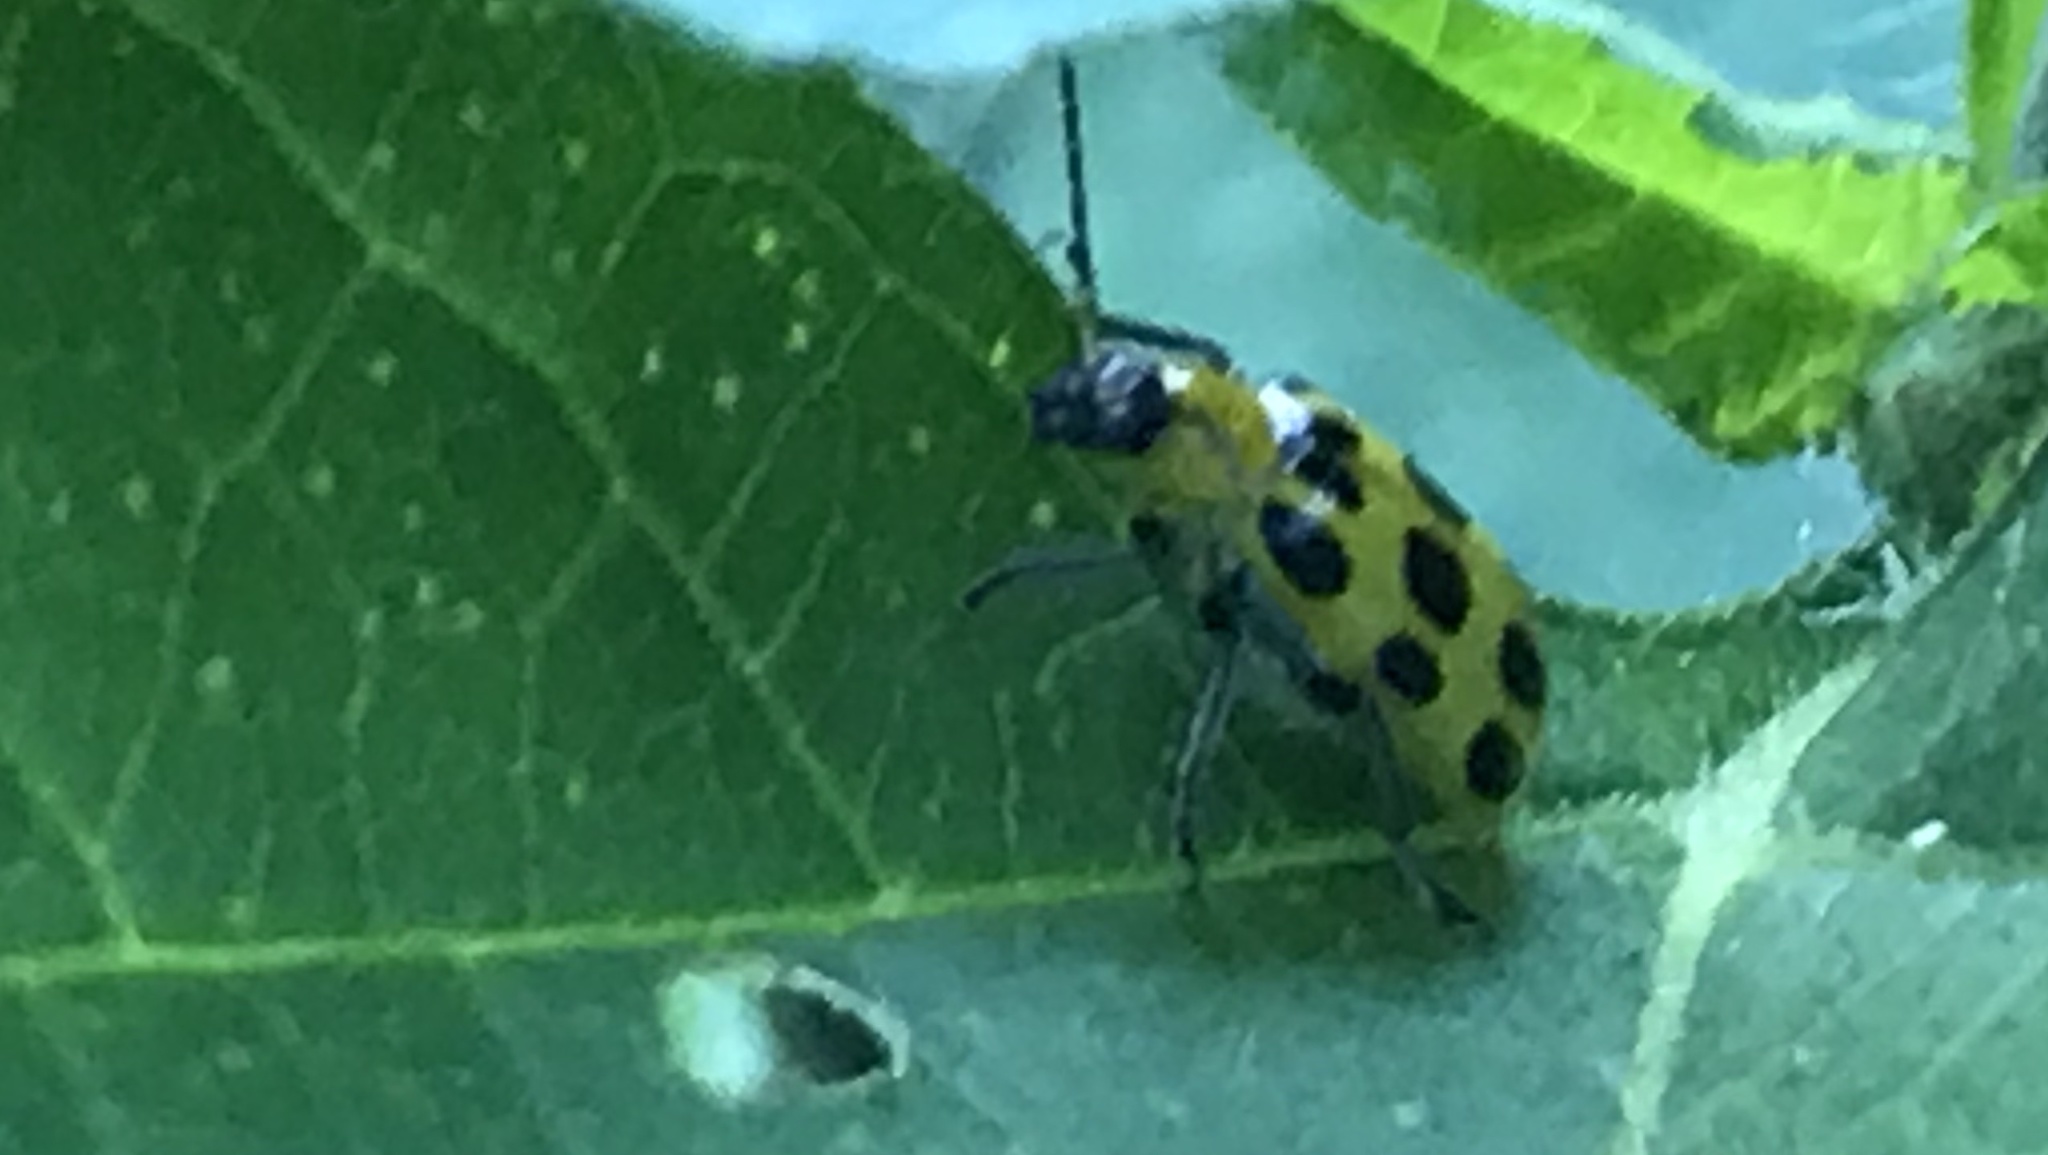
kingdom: Animalia
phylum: Arthropoda
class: Insecta
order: Coleoptera
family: Chrysomelidae
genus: Diabrotica
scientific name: Diabrotica undecimpunctata
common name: Spotted cucumber beetle
